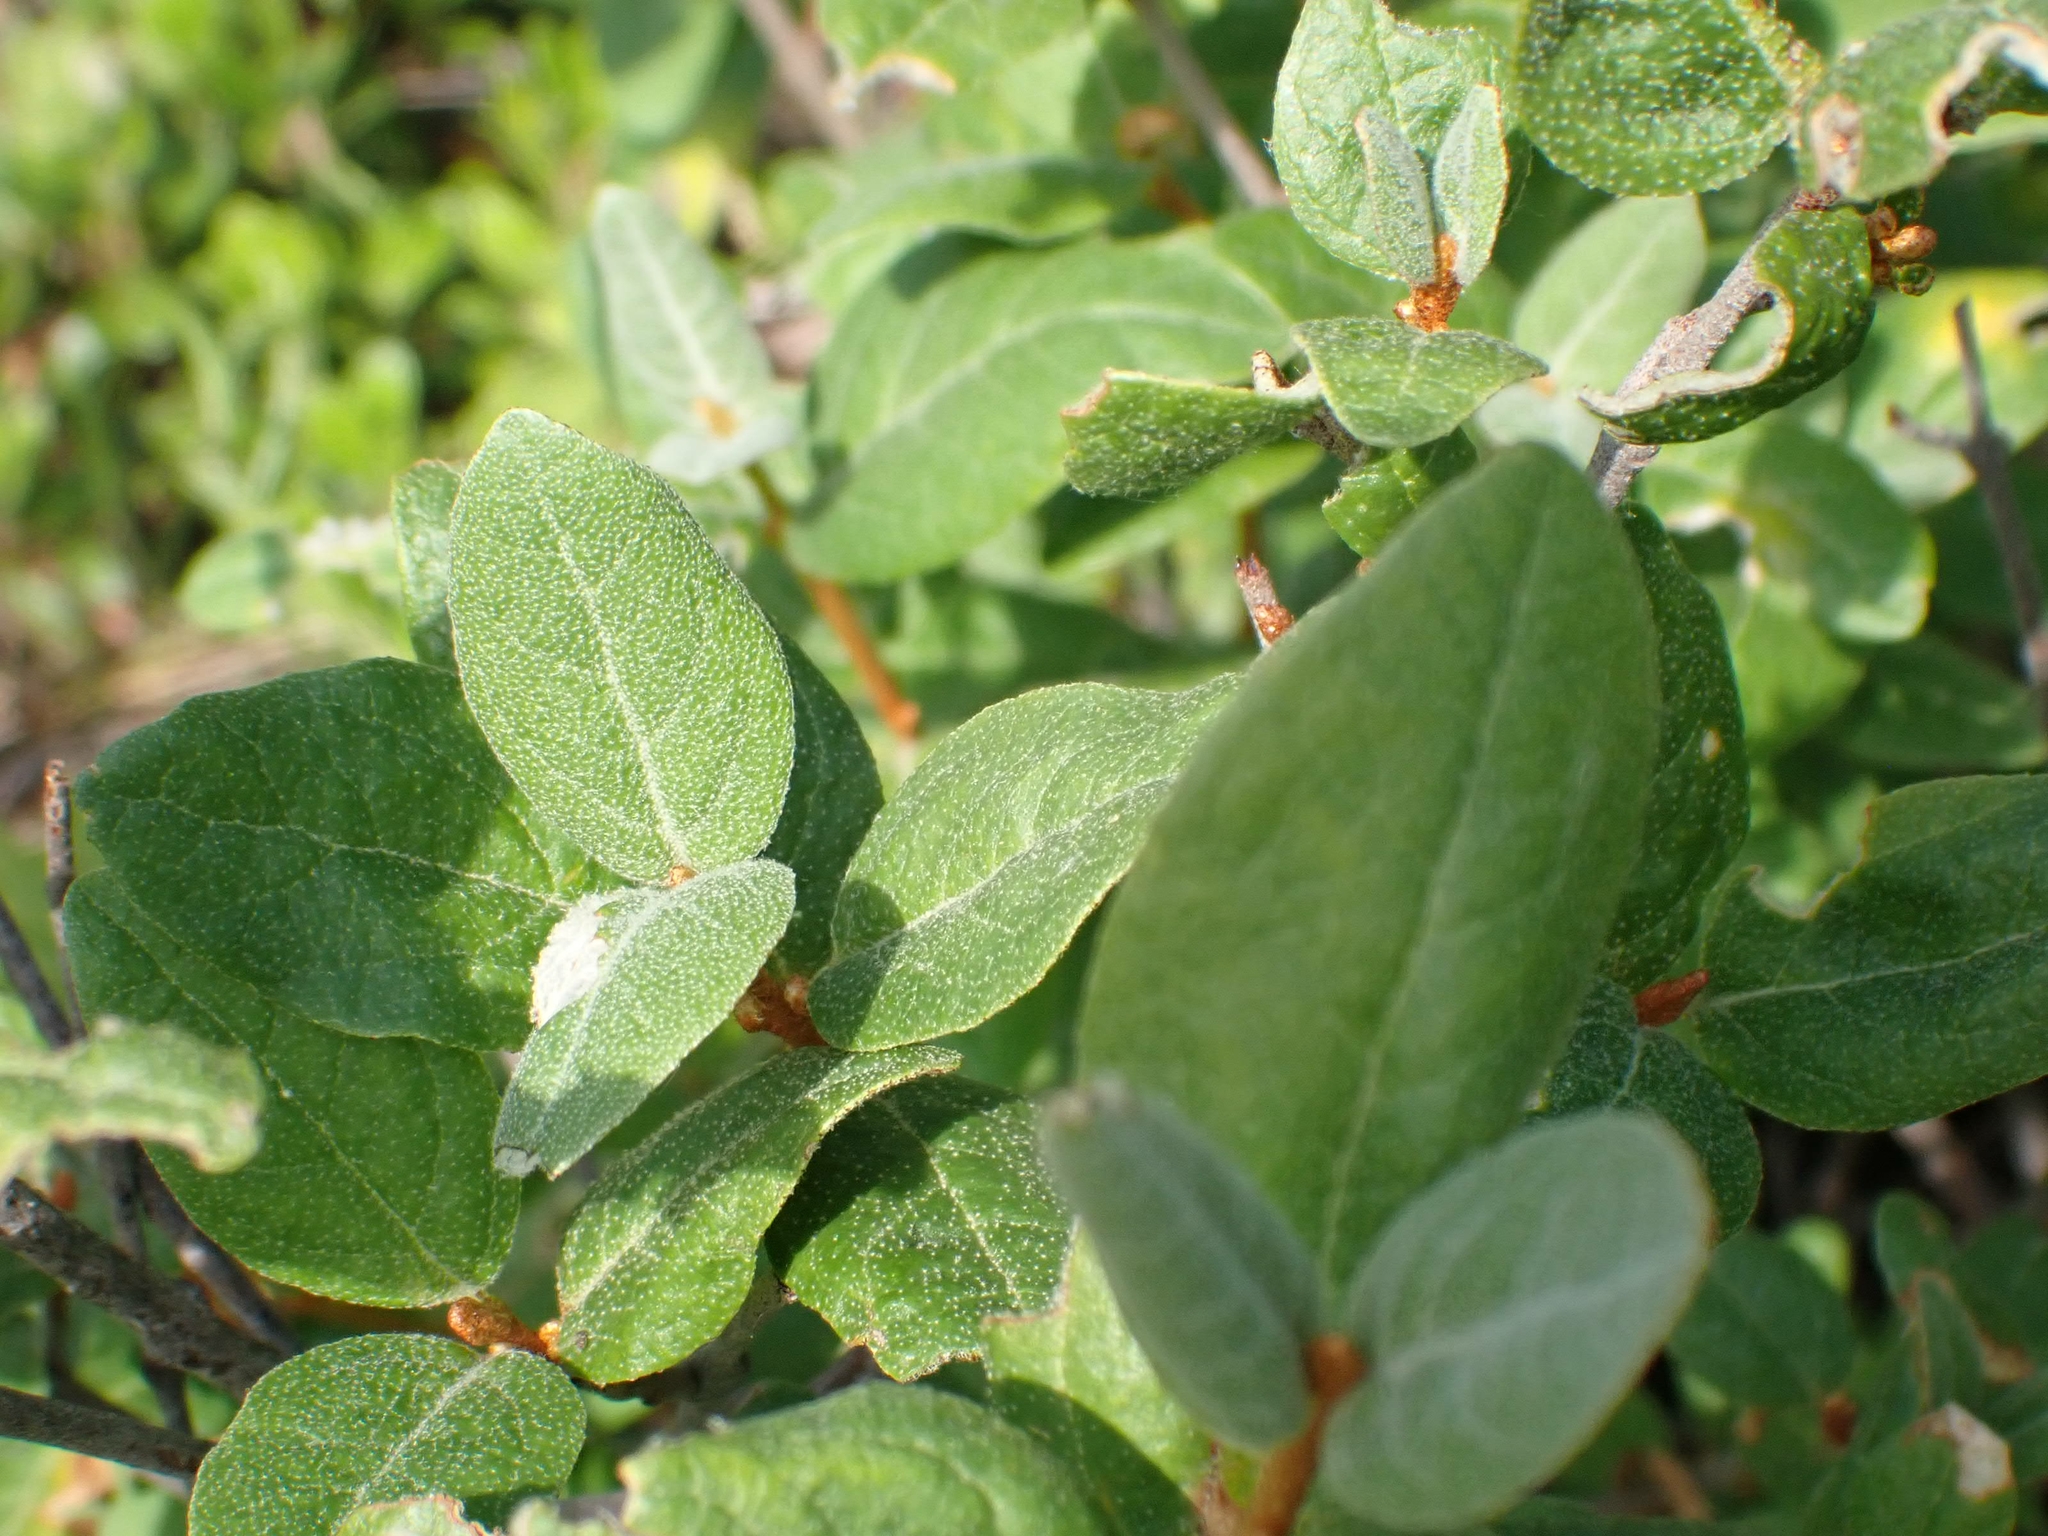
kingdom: Plantae
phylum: Tracheophyta
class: Magnoliopsida
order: Rosales
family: Elaeagnaceae
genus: Shepherdia
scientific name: Shepherdia canadensis
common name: Soapberry
